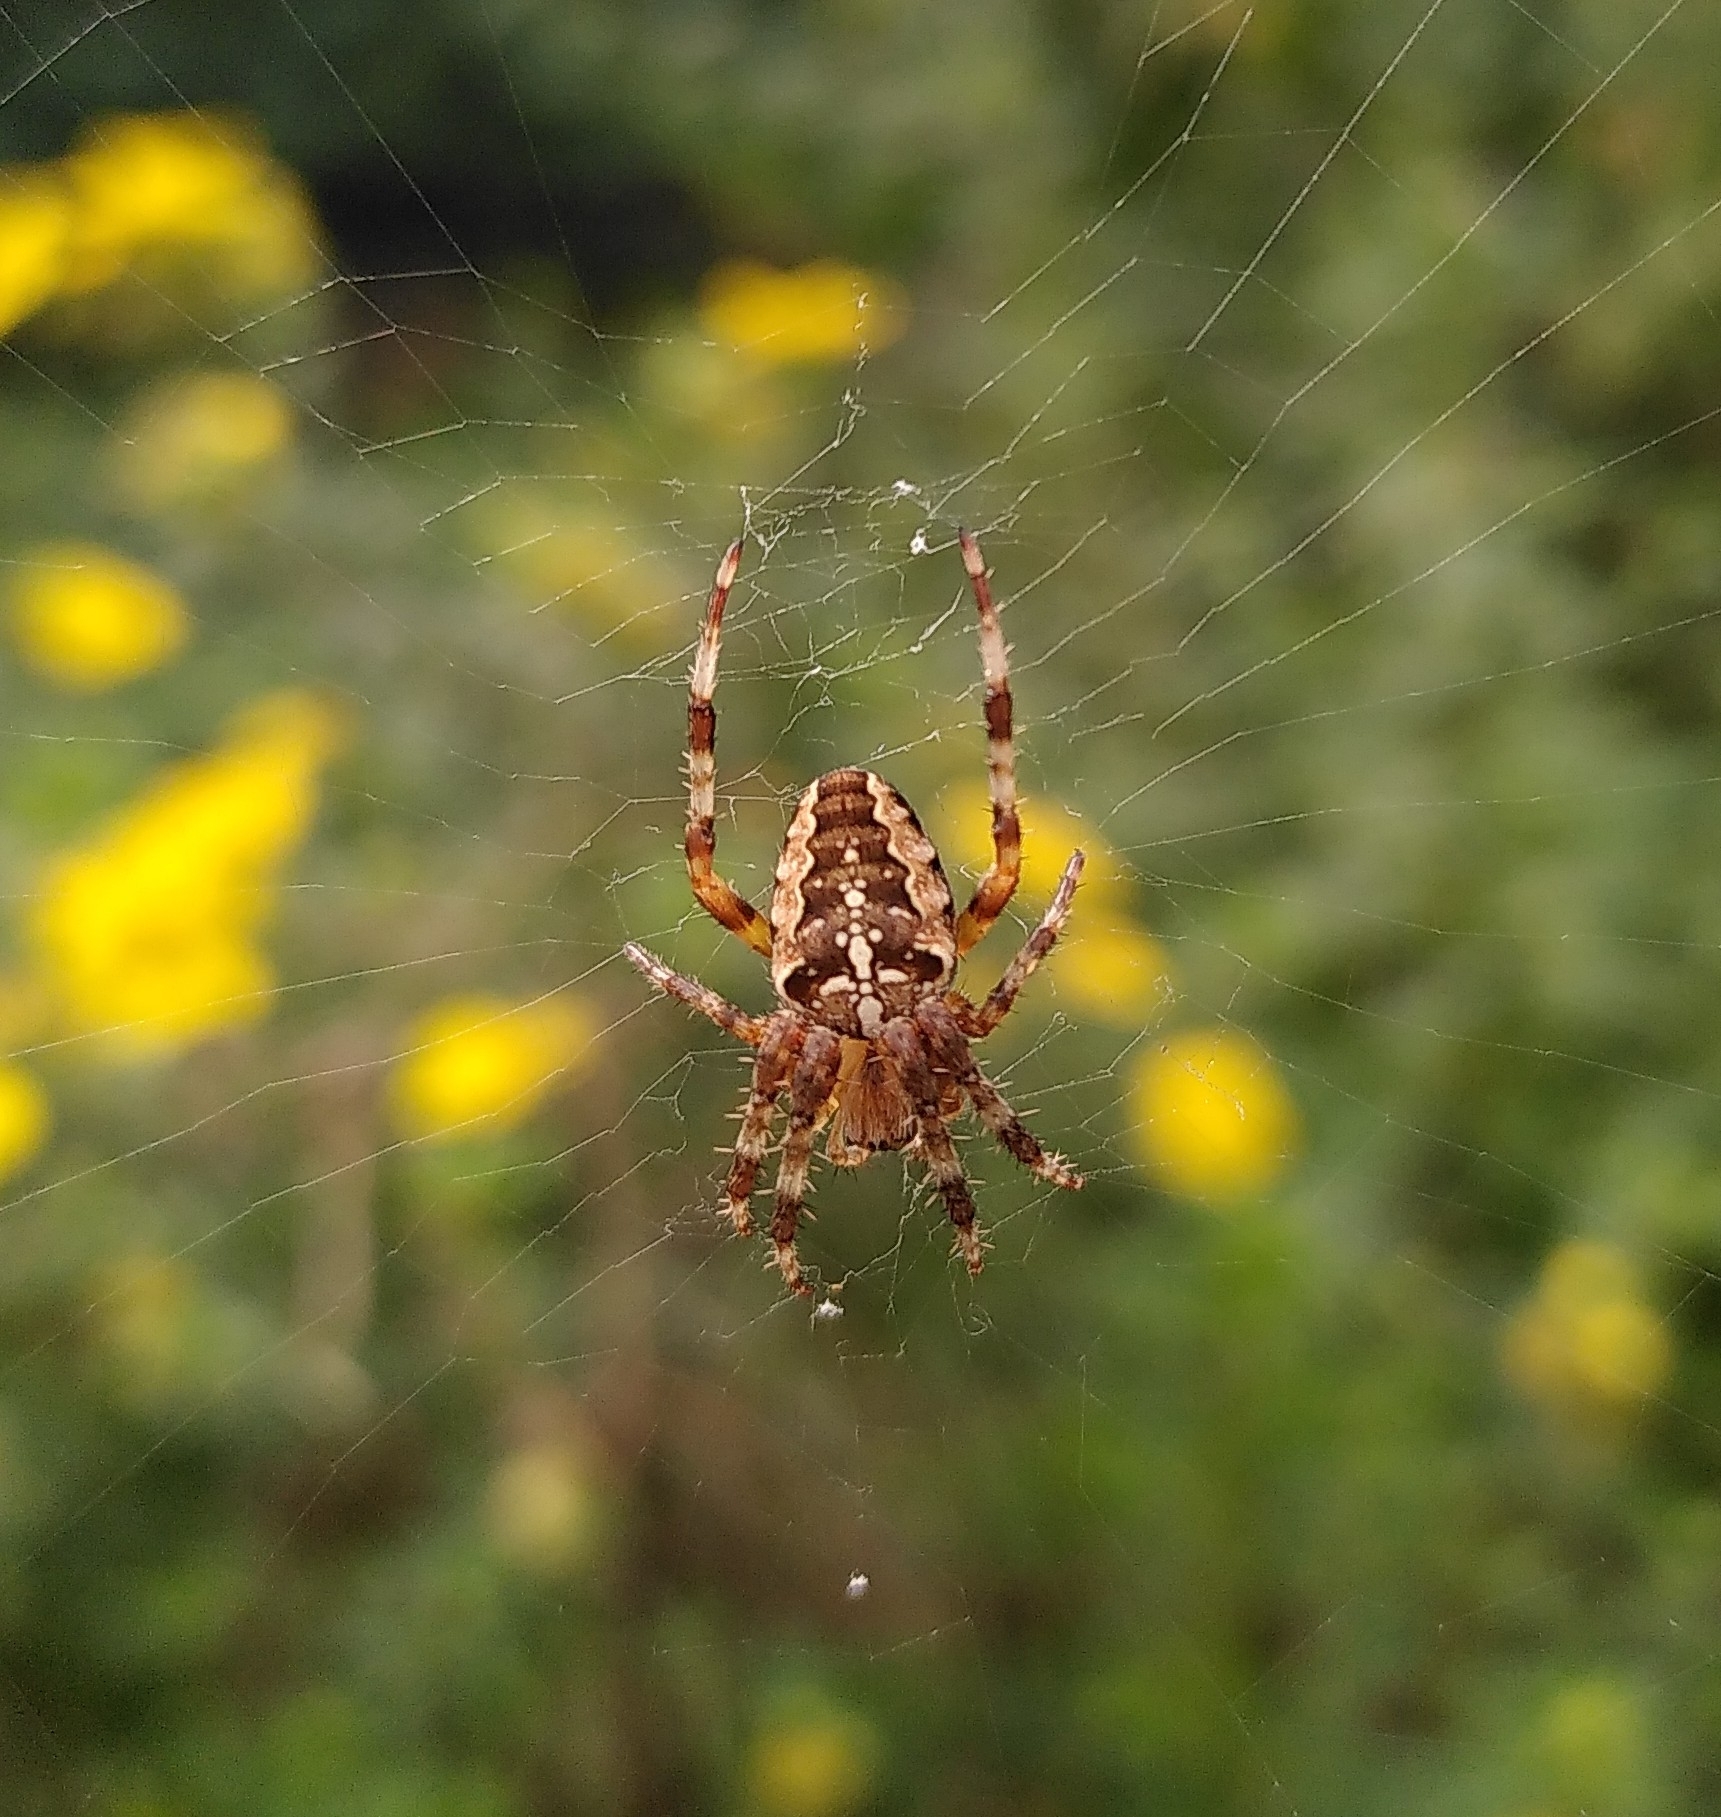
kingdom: Animalia
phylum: Arthropoda
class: Arachnida
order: Araneae
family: Araneidae
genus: Araneus
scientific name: Araneus diadematus
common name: Cross orbweaver
